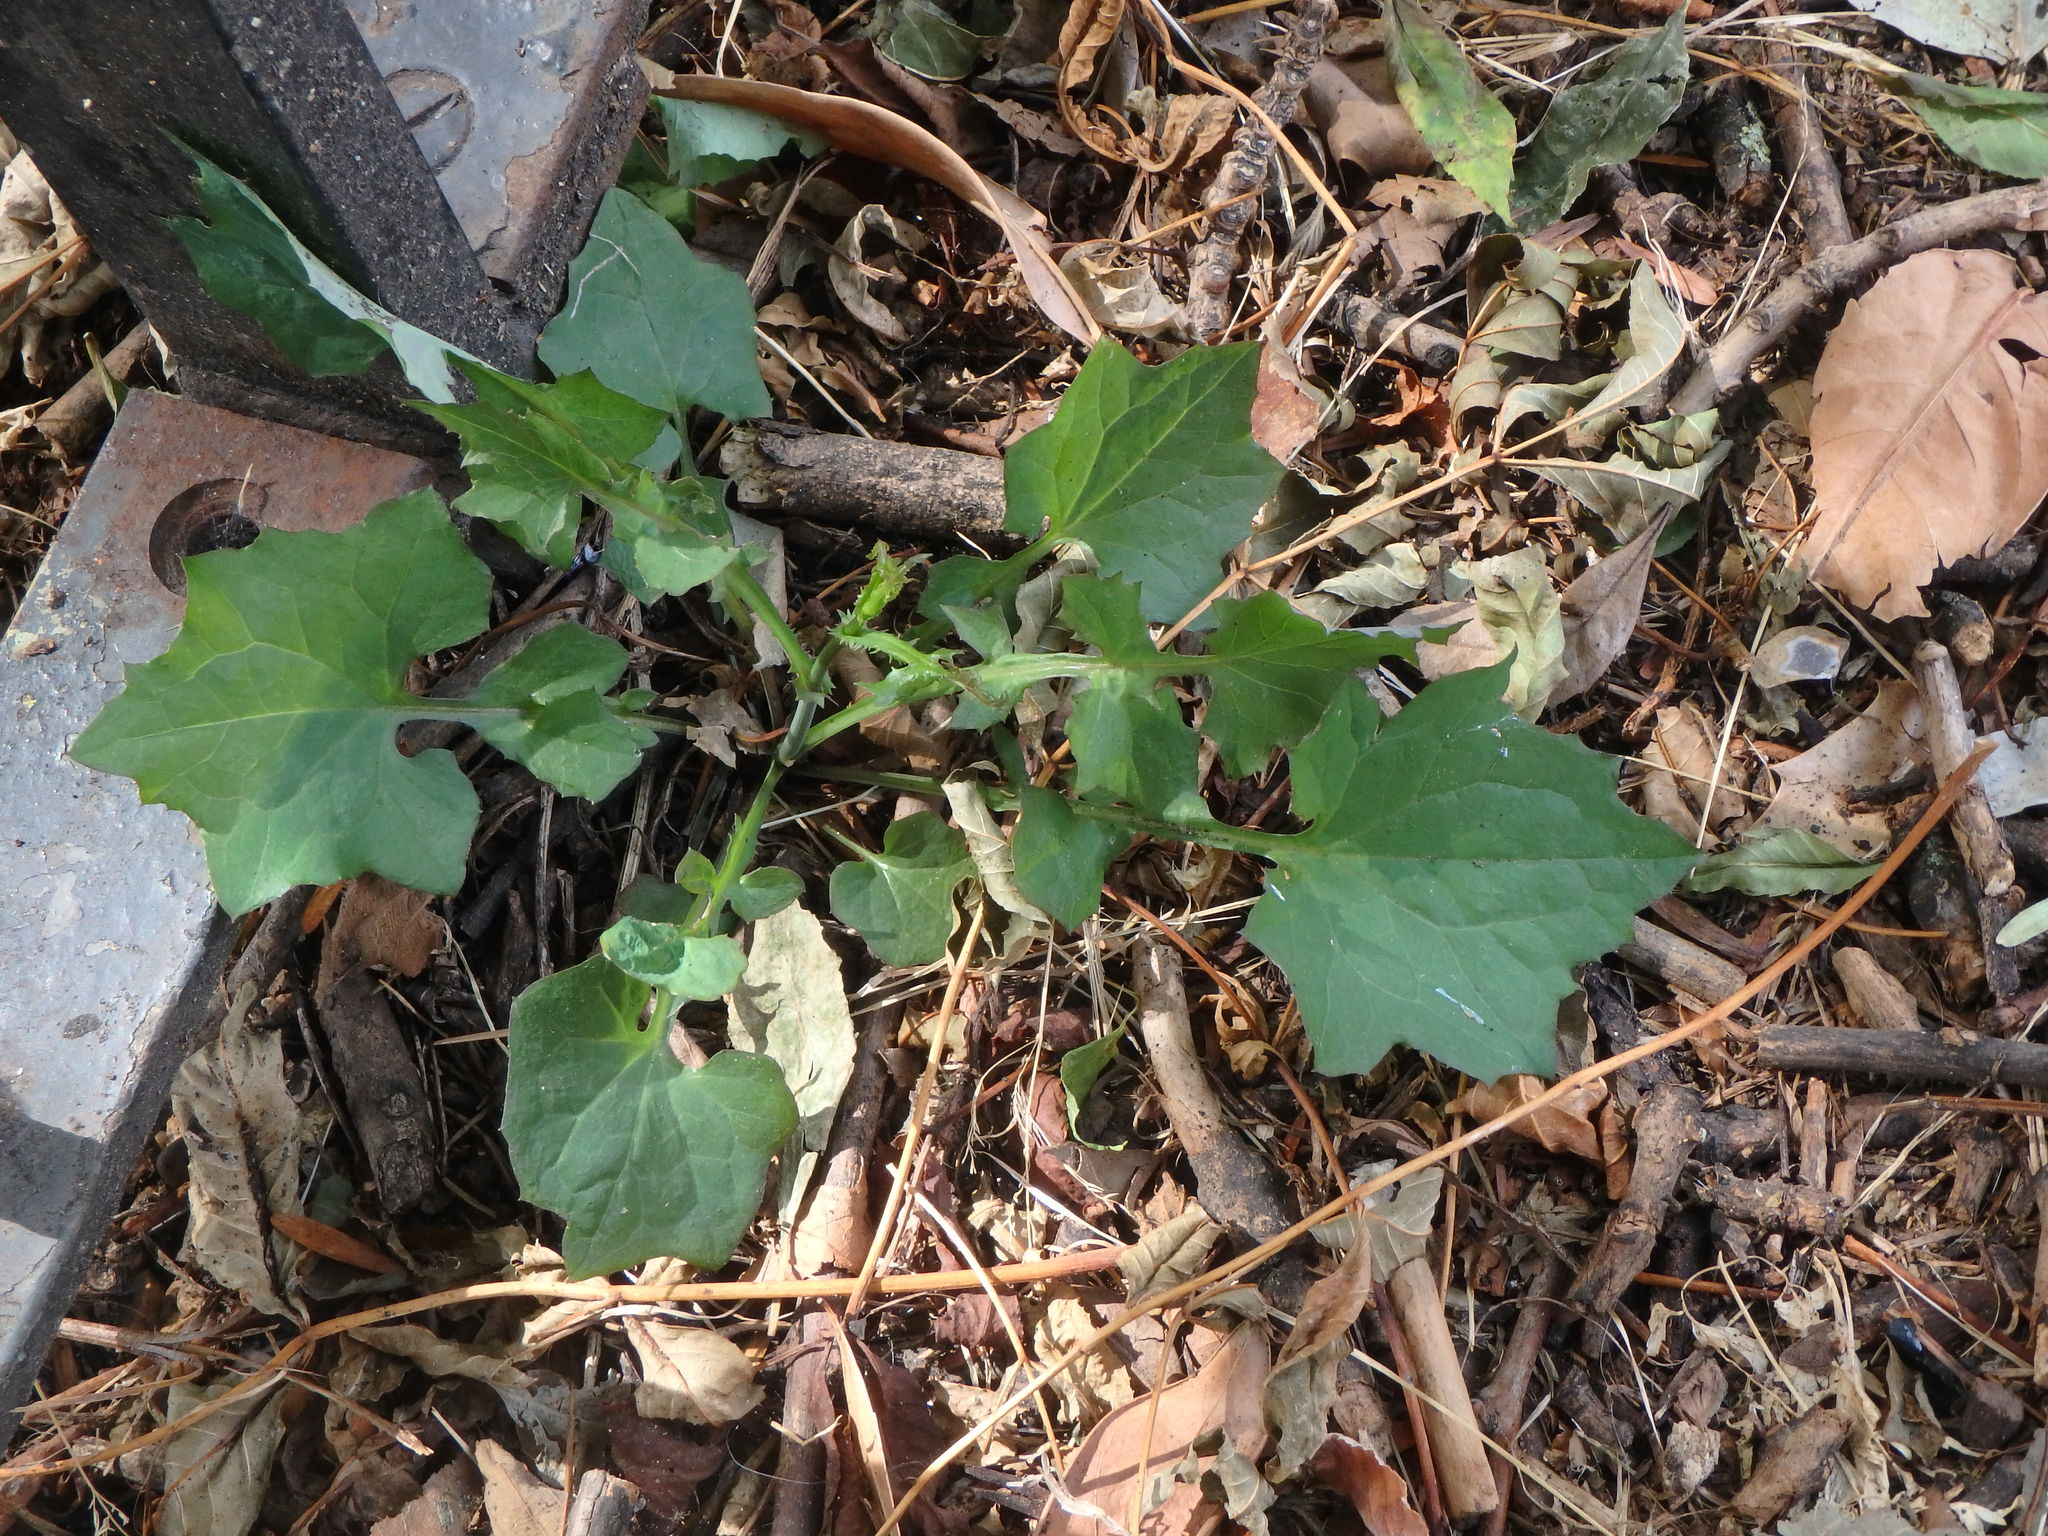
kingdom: Plantae
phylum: Tracheophyta
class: Magnoliopsida
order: Asterales
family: Asteraceae
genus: Mycelis
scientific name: Mycelis muralis
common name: Wall lettuce
